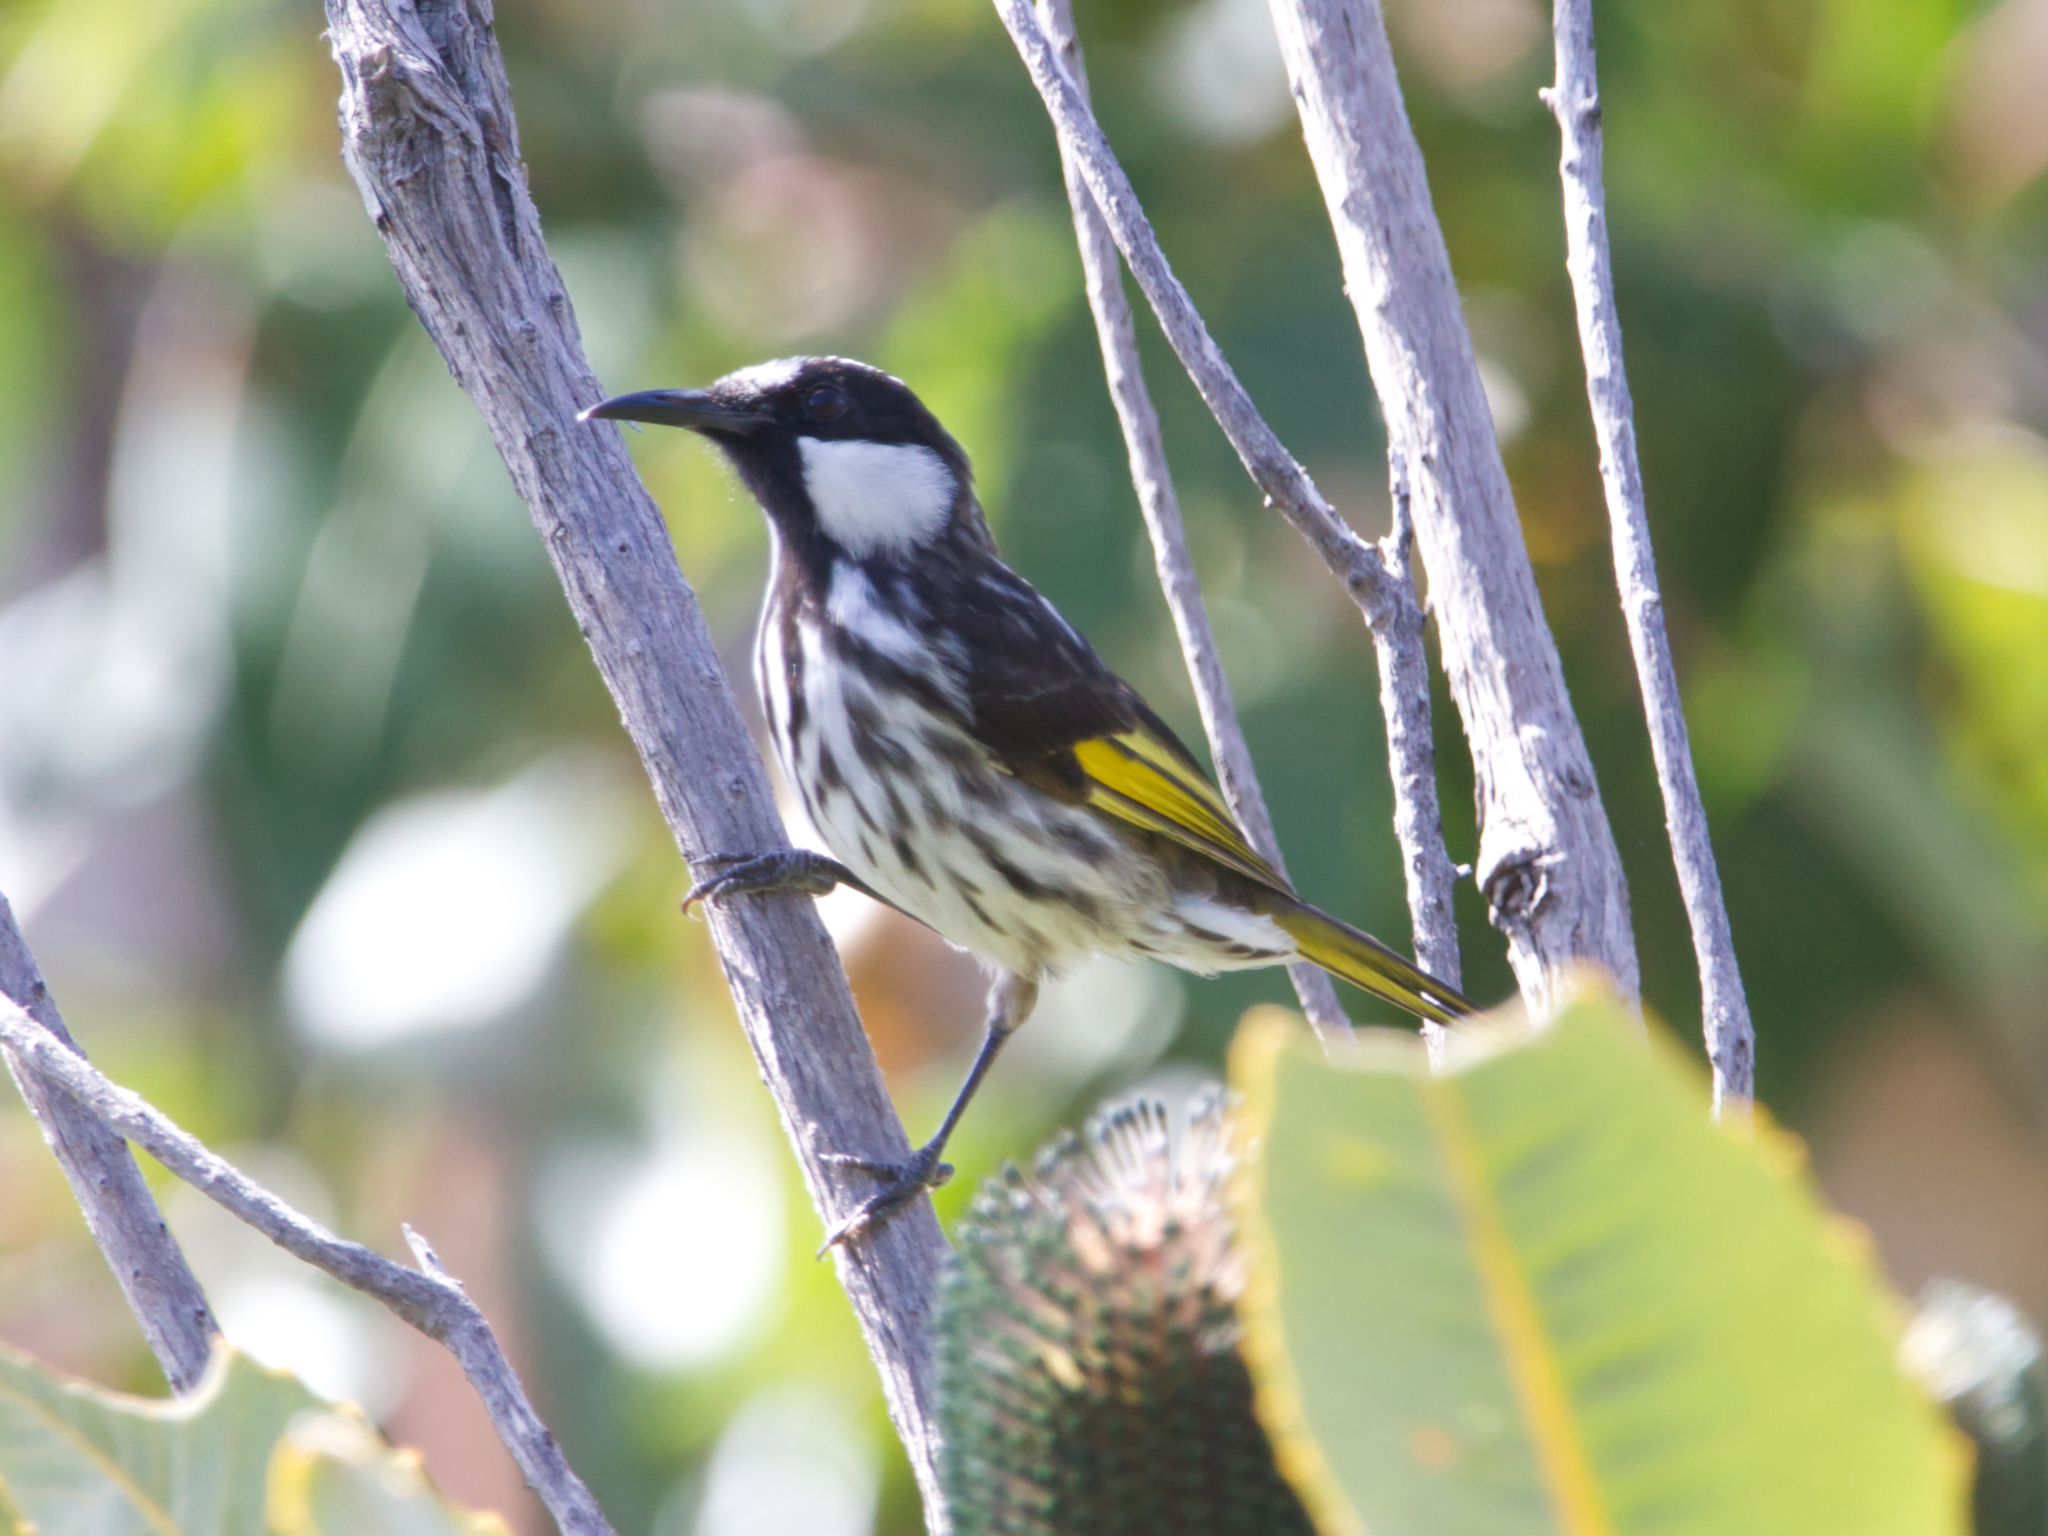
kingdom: Animalia
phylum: Chordata
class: Aves
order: Passeriformes
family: Meliphagidae
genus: Phylidonyris
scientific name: Phylidonyris niger
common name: White-cheeked honeyeater
